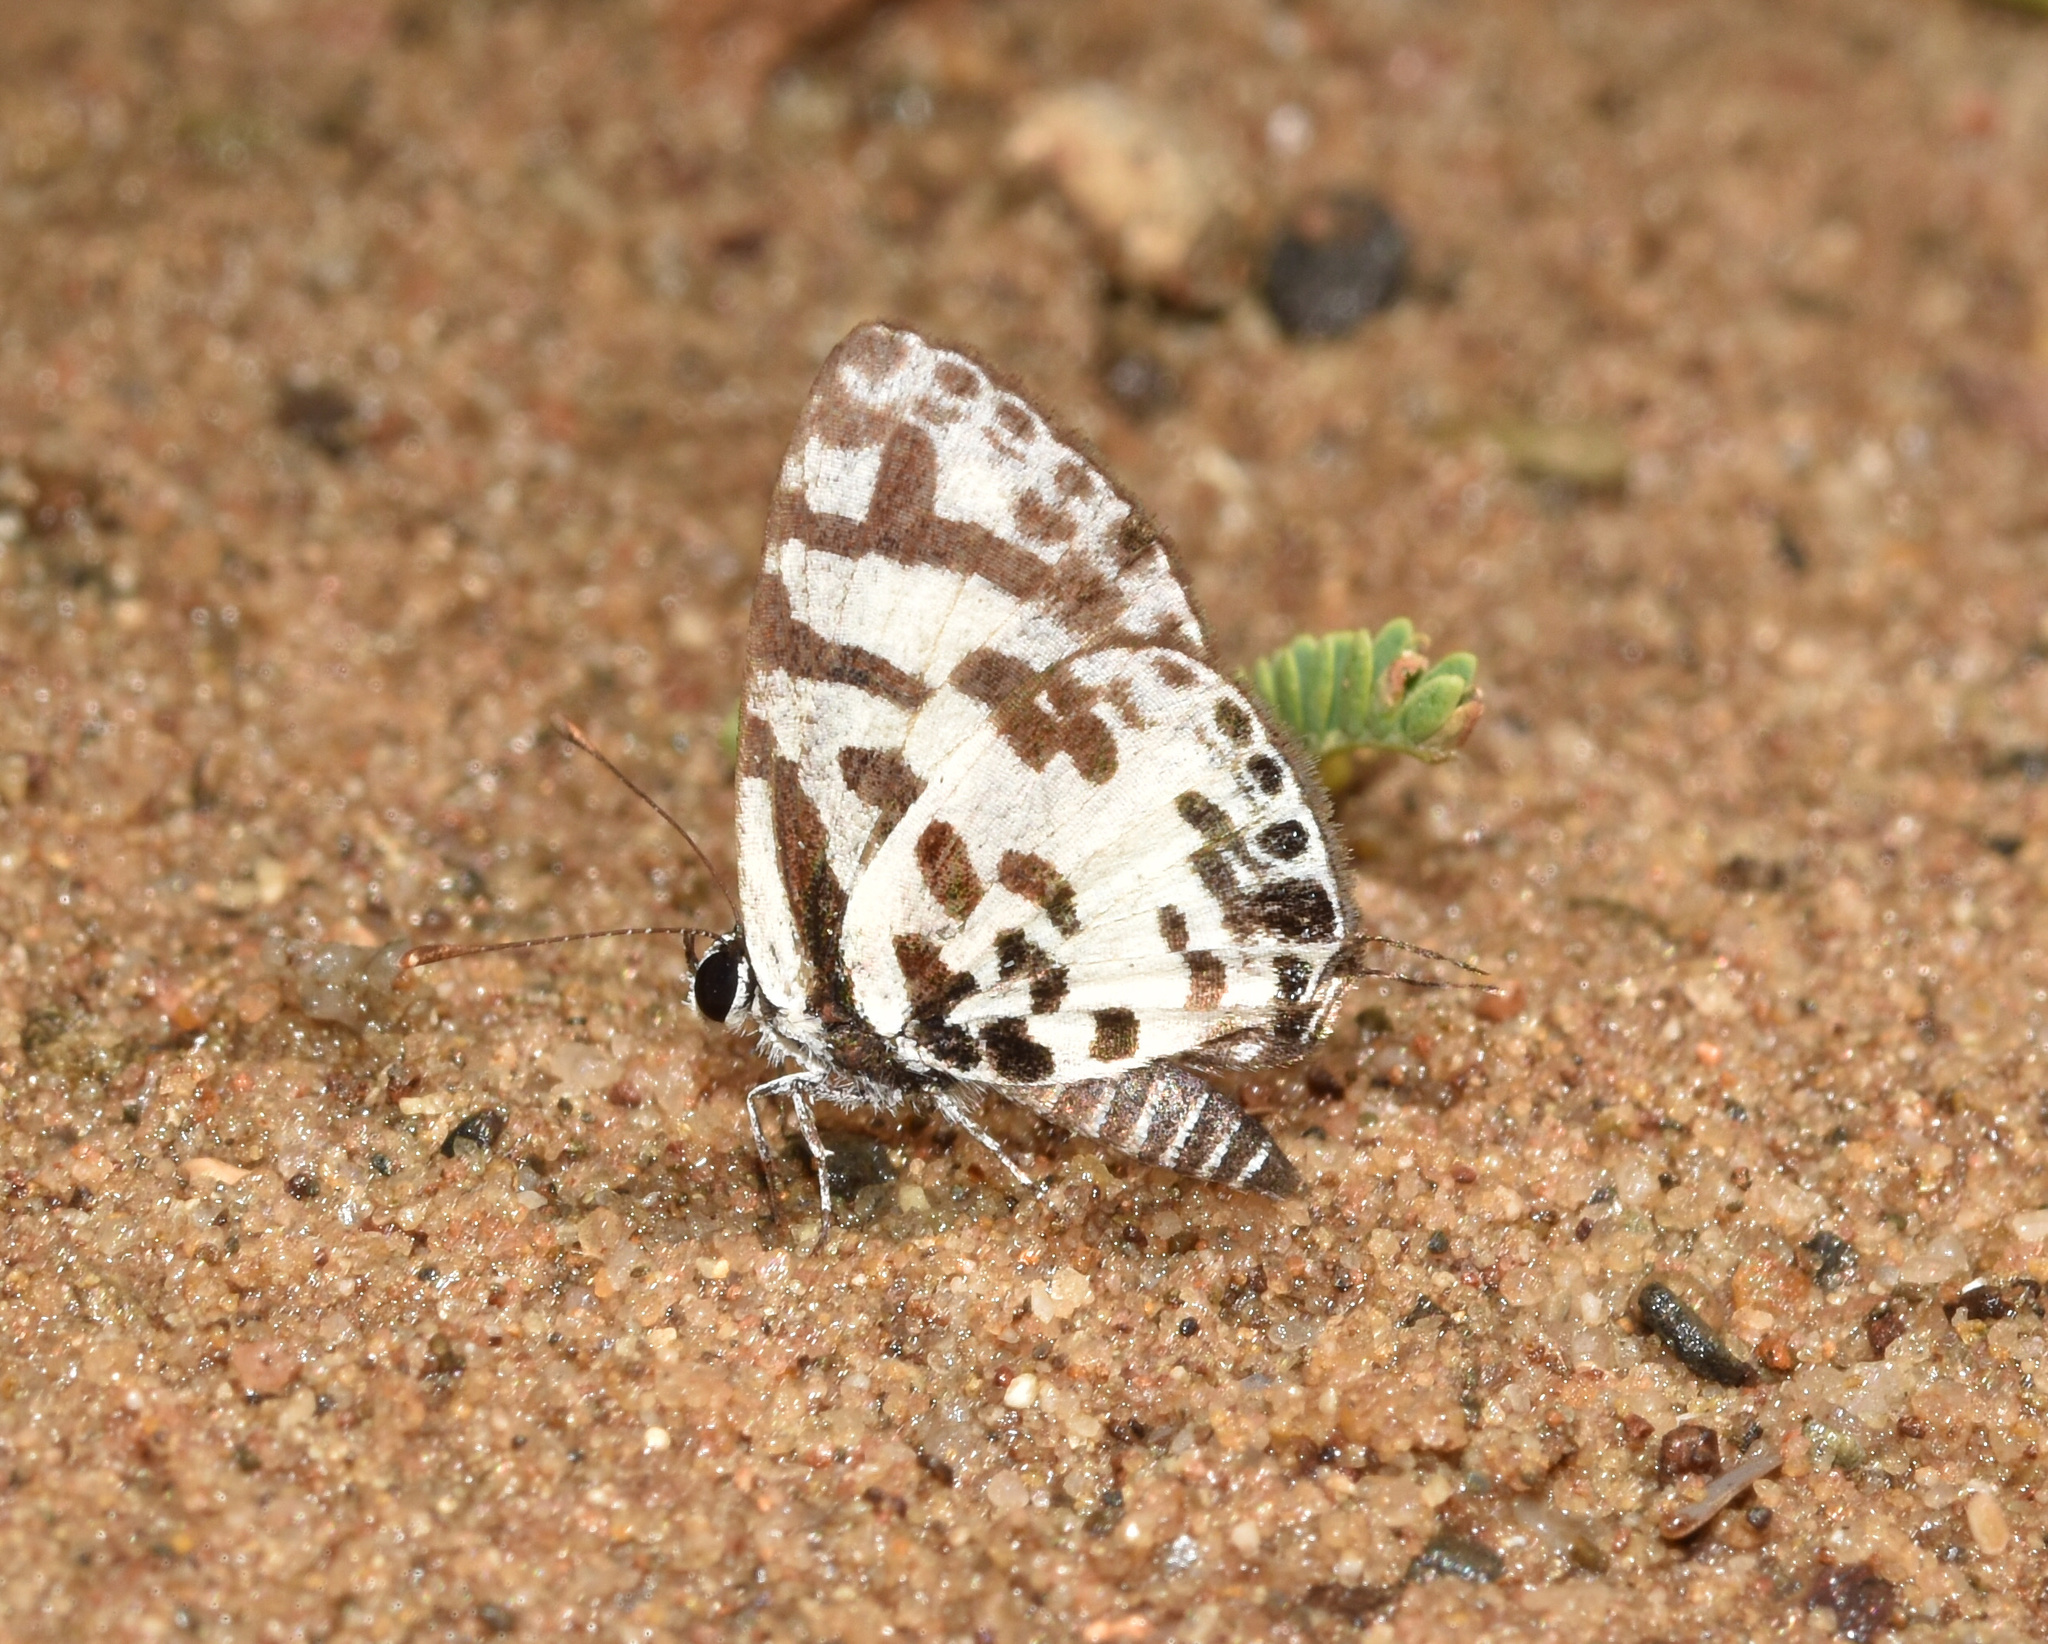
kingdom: Animalia
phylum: Arthropoda
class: Insecta
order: Lepidoptera
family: Lycaenidae
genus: Castalius
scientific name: Castalius melaena
